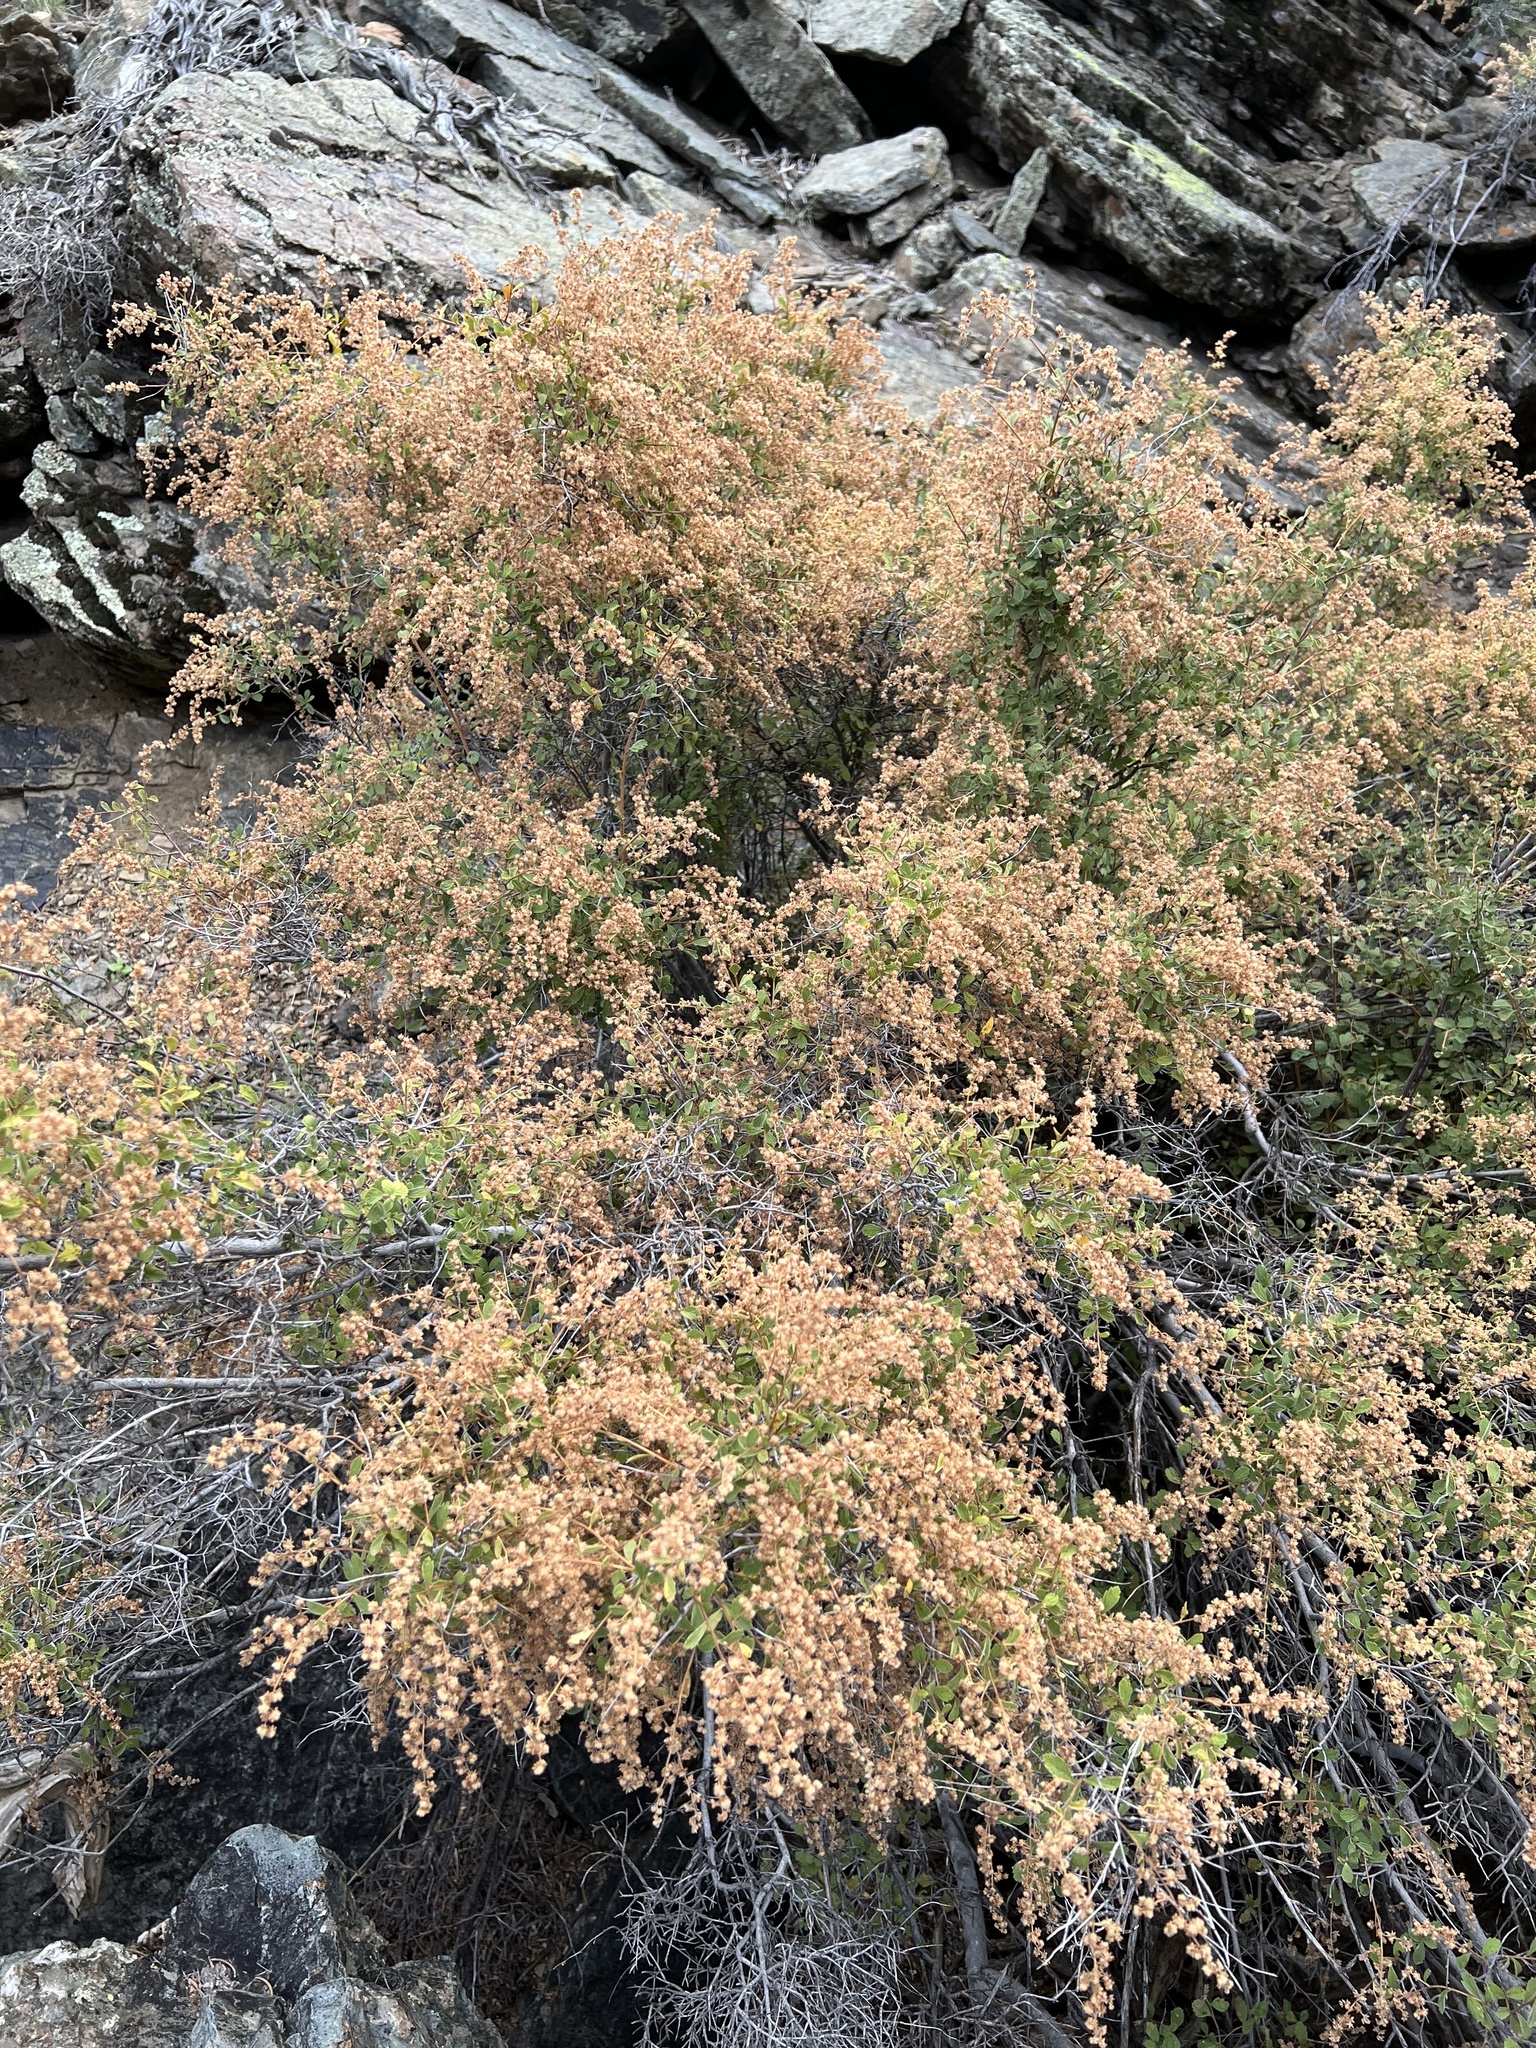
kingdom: Plantae
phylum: Tracheophyta
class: Magnoliopsida
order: Rosales
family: Rosaceae
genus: Holodiscus
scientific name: Holodiscus discolor
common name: Oceanspray
